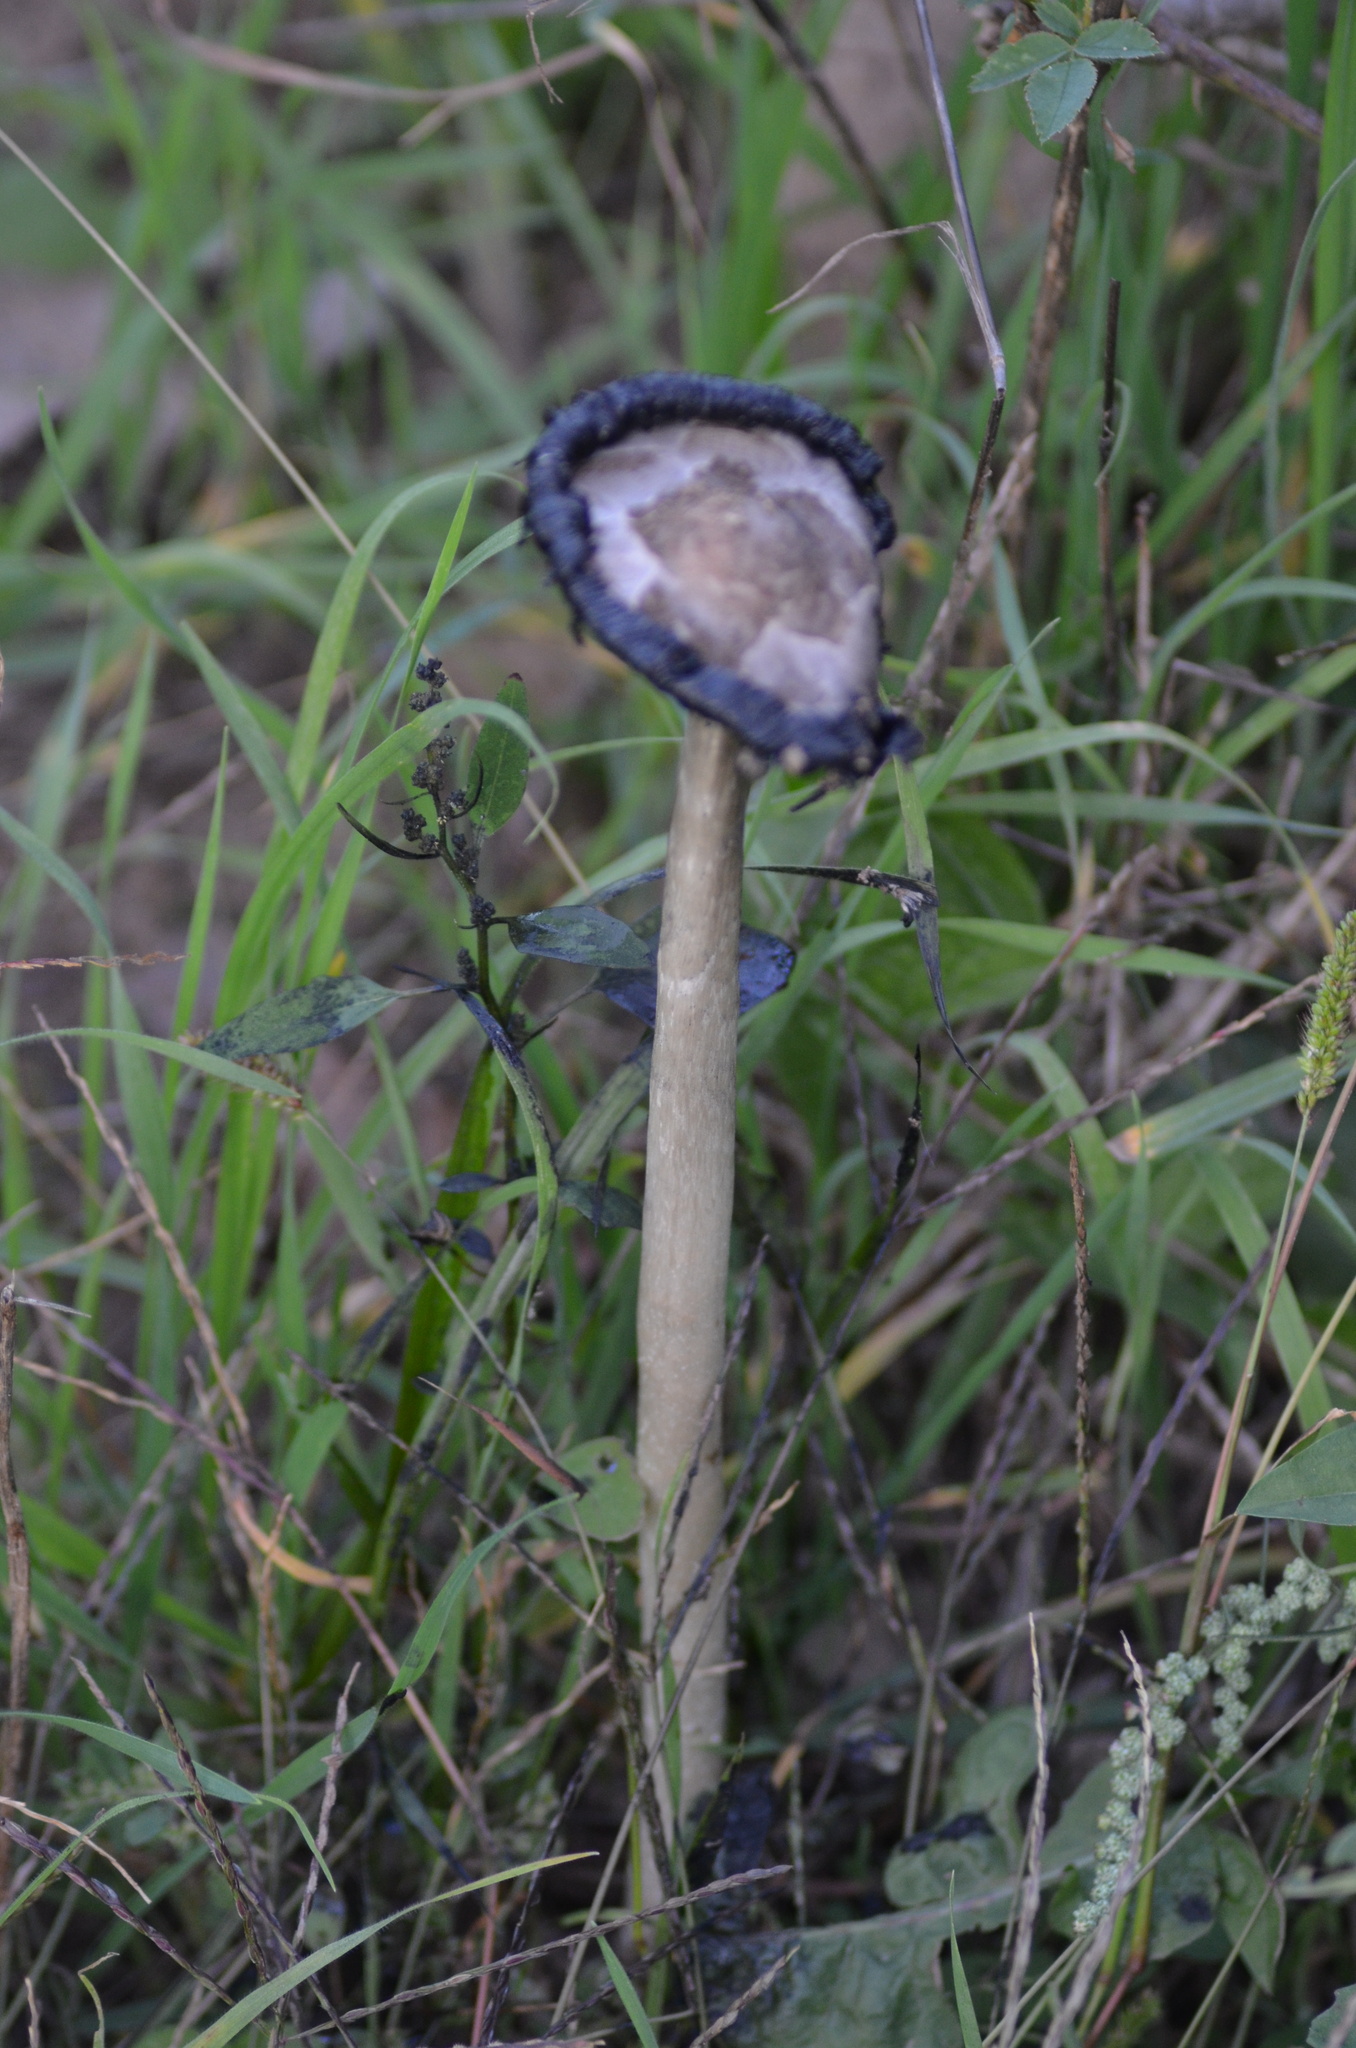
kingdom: Fungi
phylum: Basidiomycota
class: Agaricomycetes
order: Agaricales
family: Agaricaceae
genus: Coprinus
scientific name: Coprinus comatus
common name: Lawyer's wig
